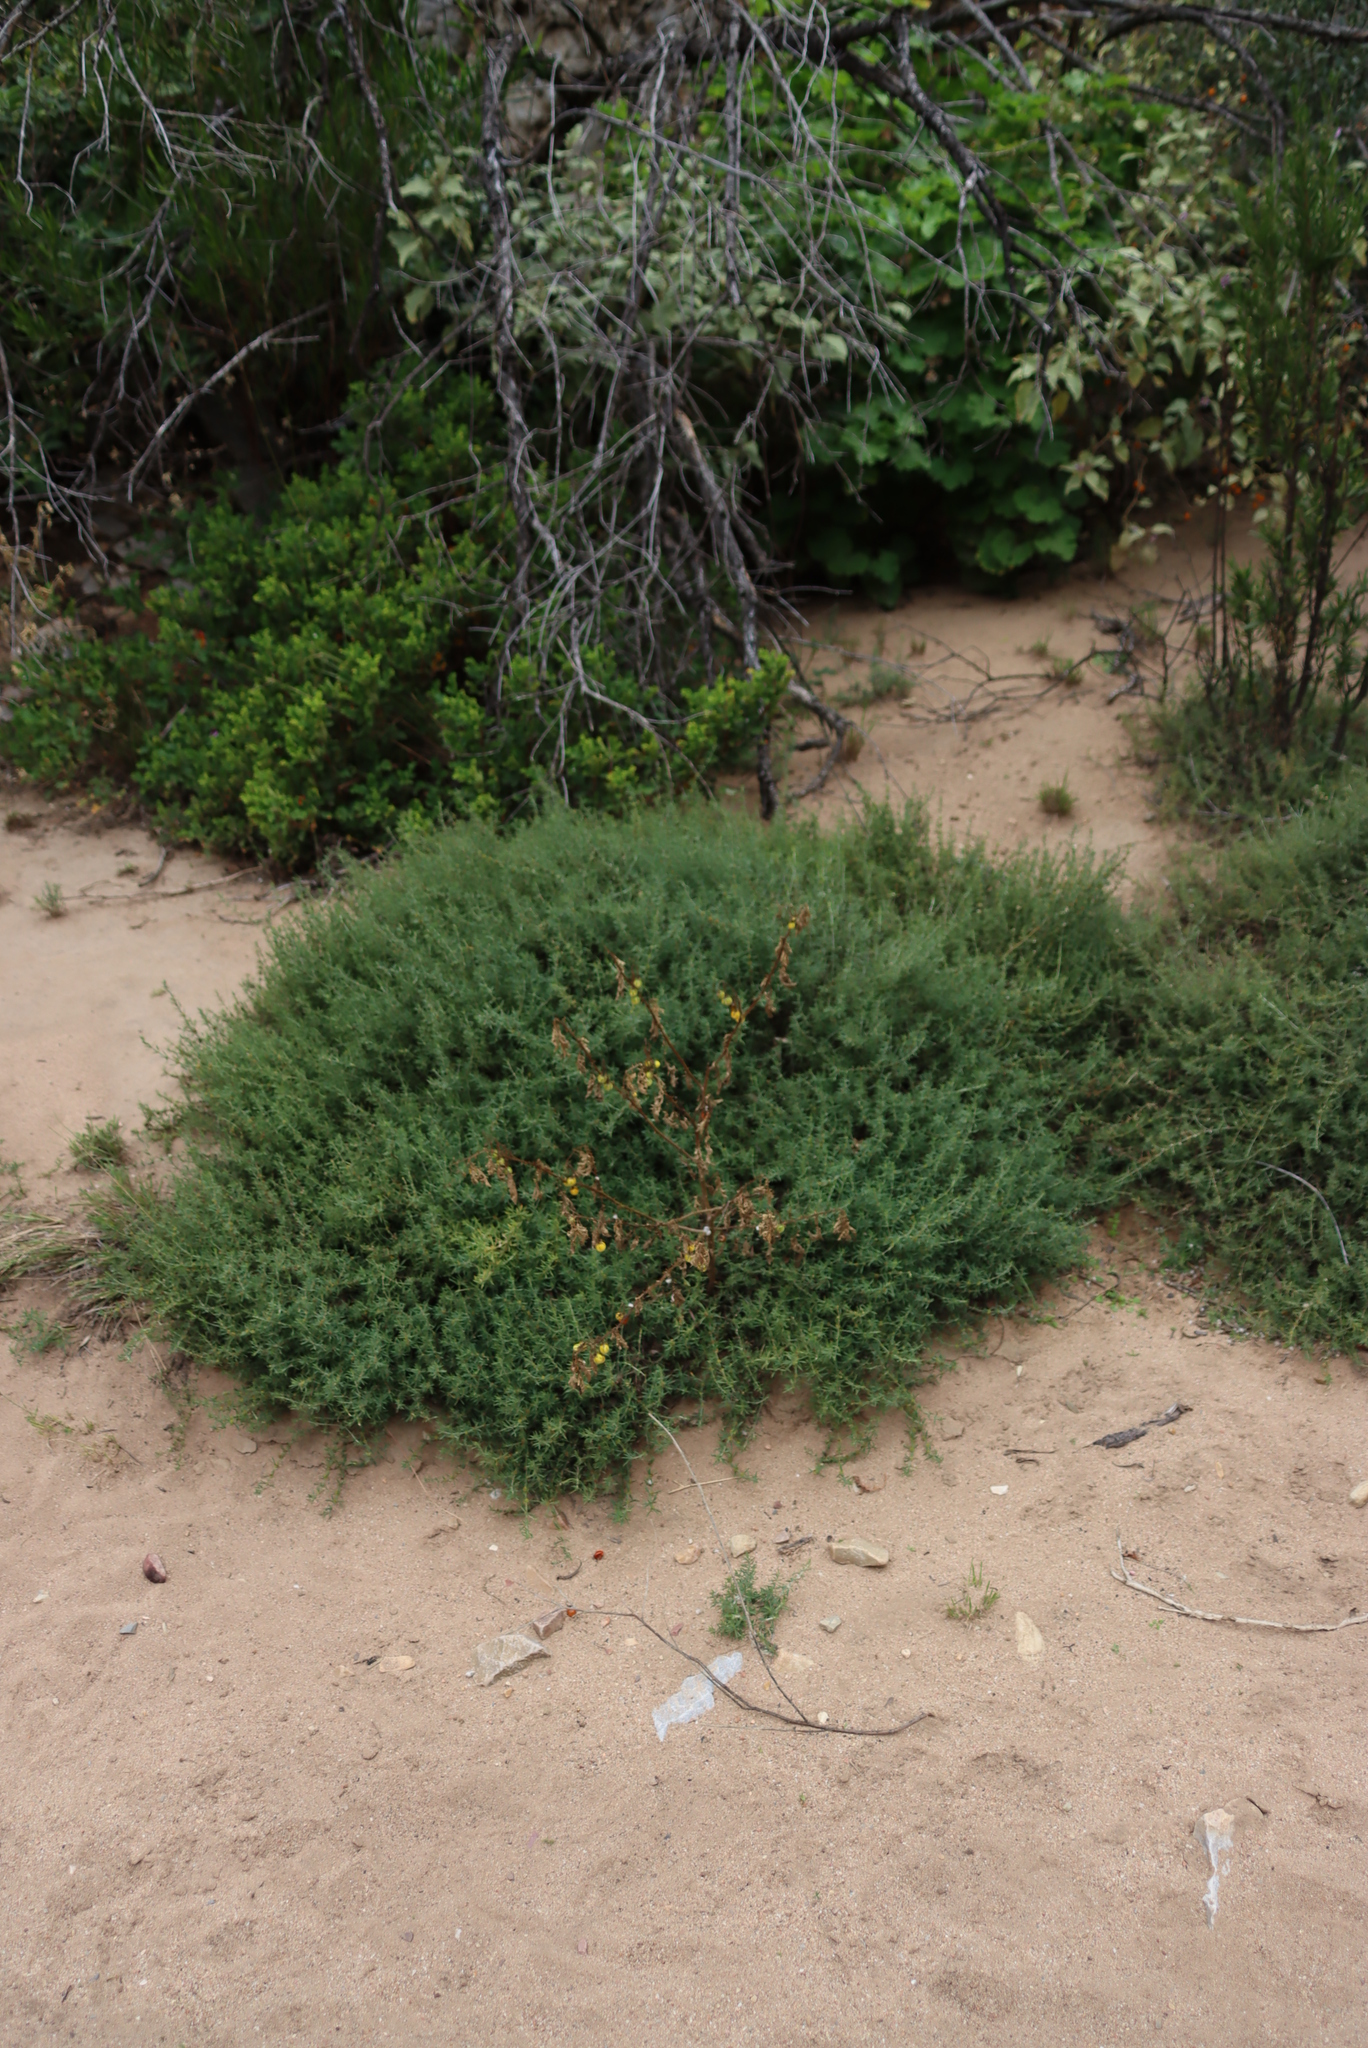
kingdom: Plantae
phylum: Tracheophyta
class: Magnoliopsida
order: Solanales
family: Solanaceae
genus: Solanum
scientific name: Solanum linnaeanum
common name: Nightshade
